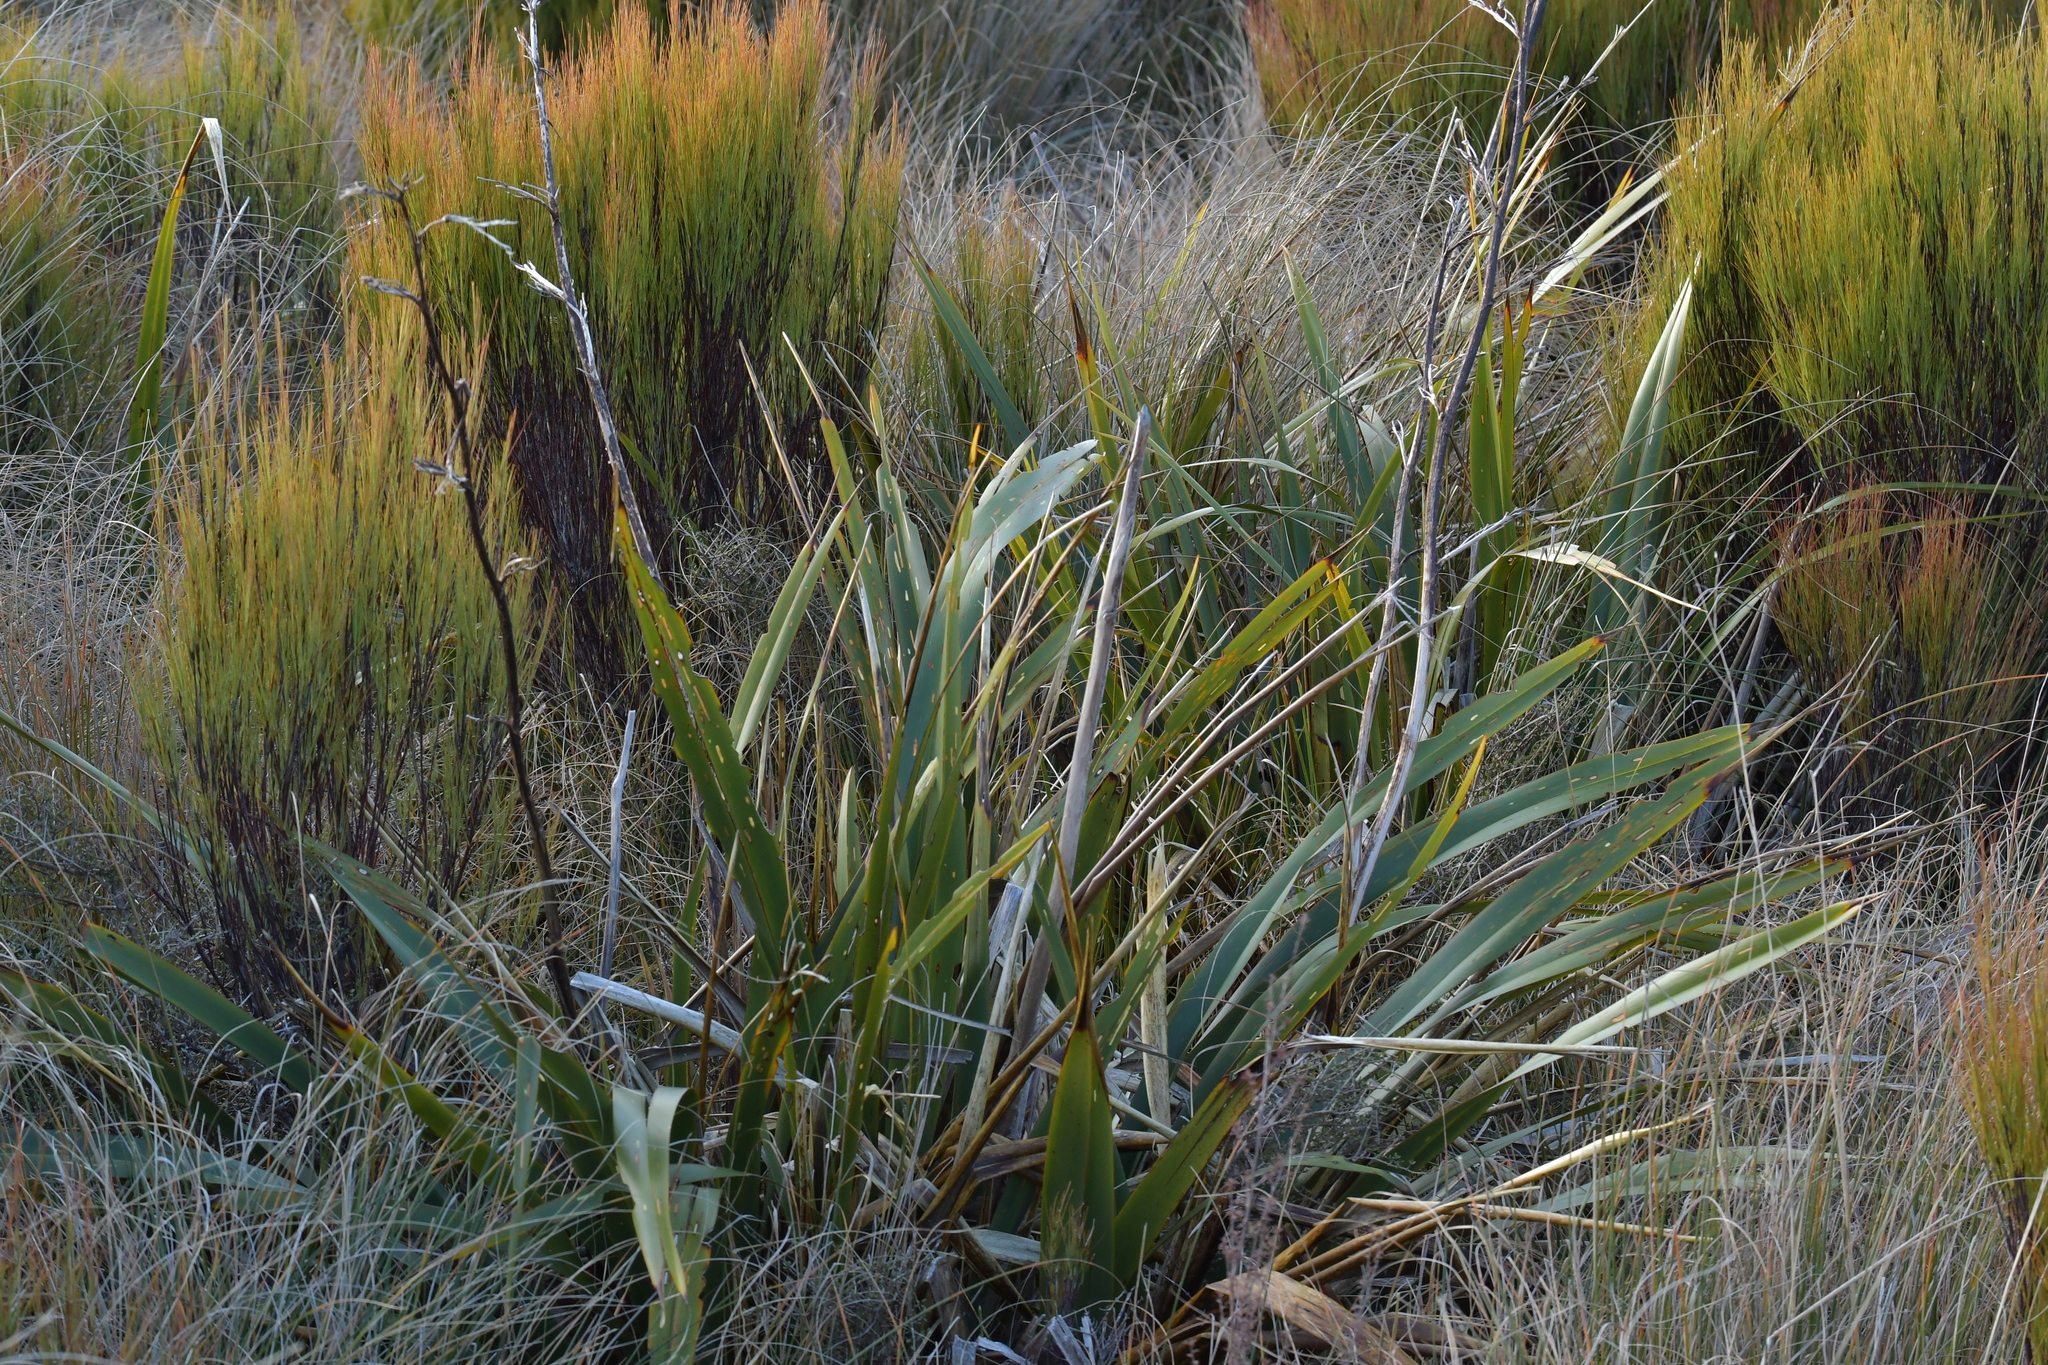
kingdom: Plantae
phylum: Tracheophyta
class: Liliopsida
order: Asparagales
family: Asphodelaceae
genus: Phormium
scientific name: Phormium tenax
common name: New zealand flax
